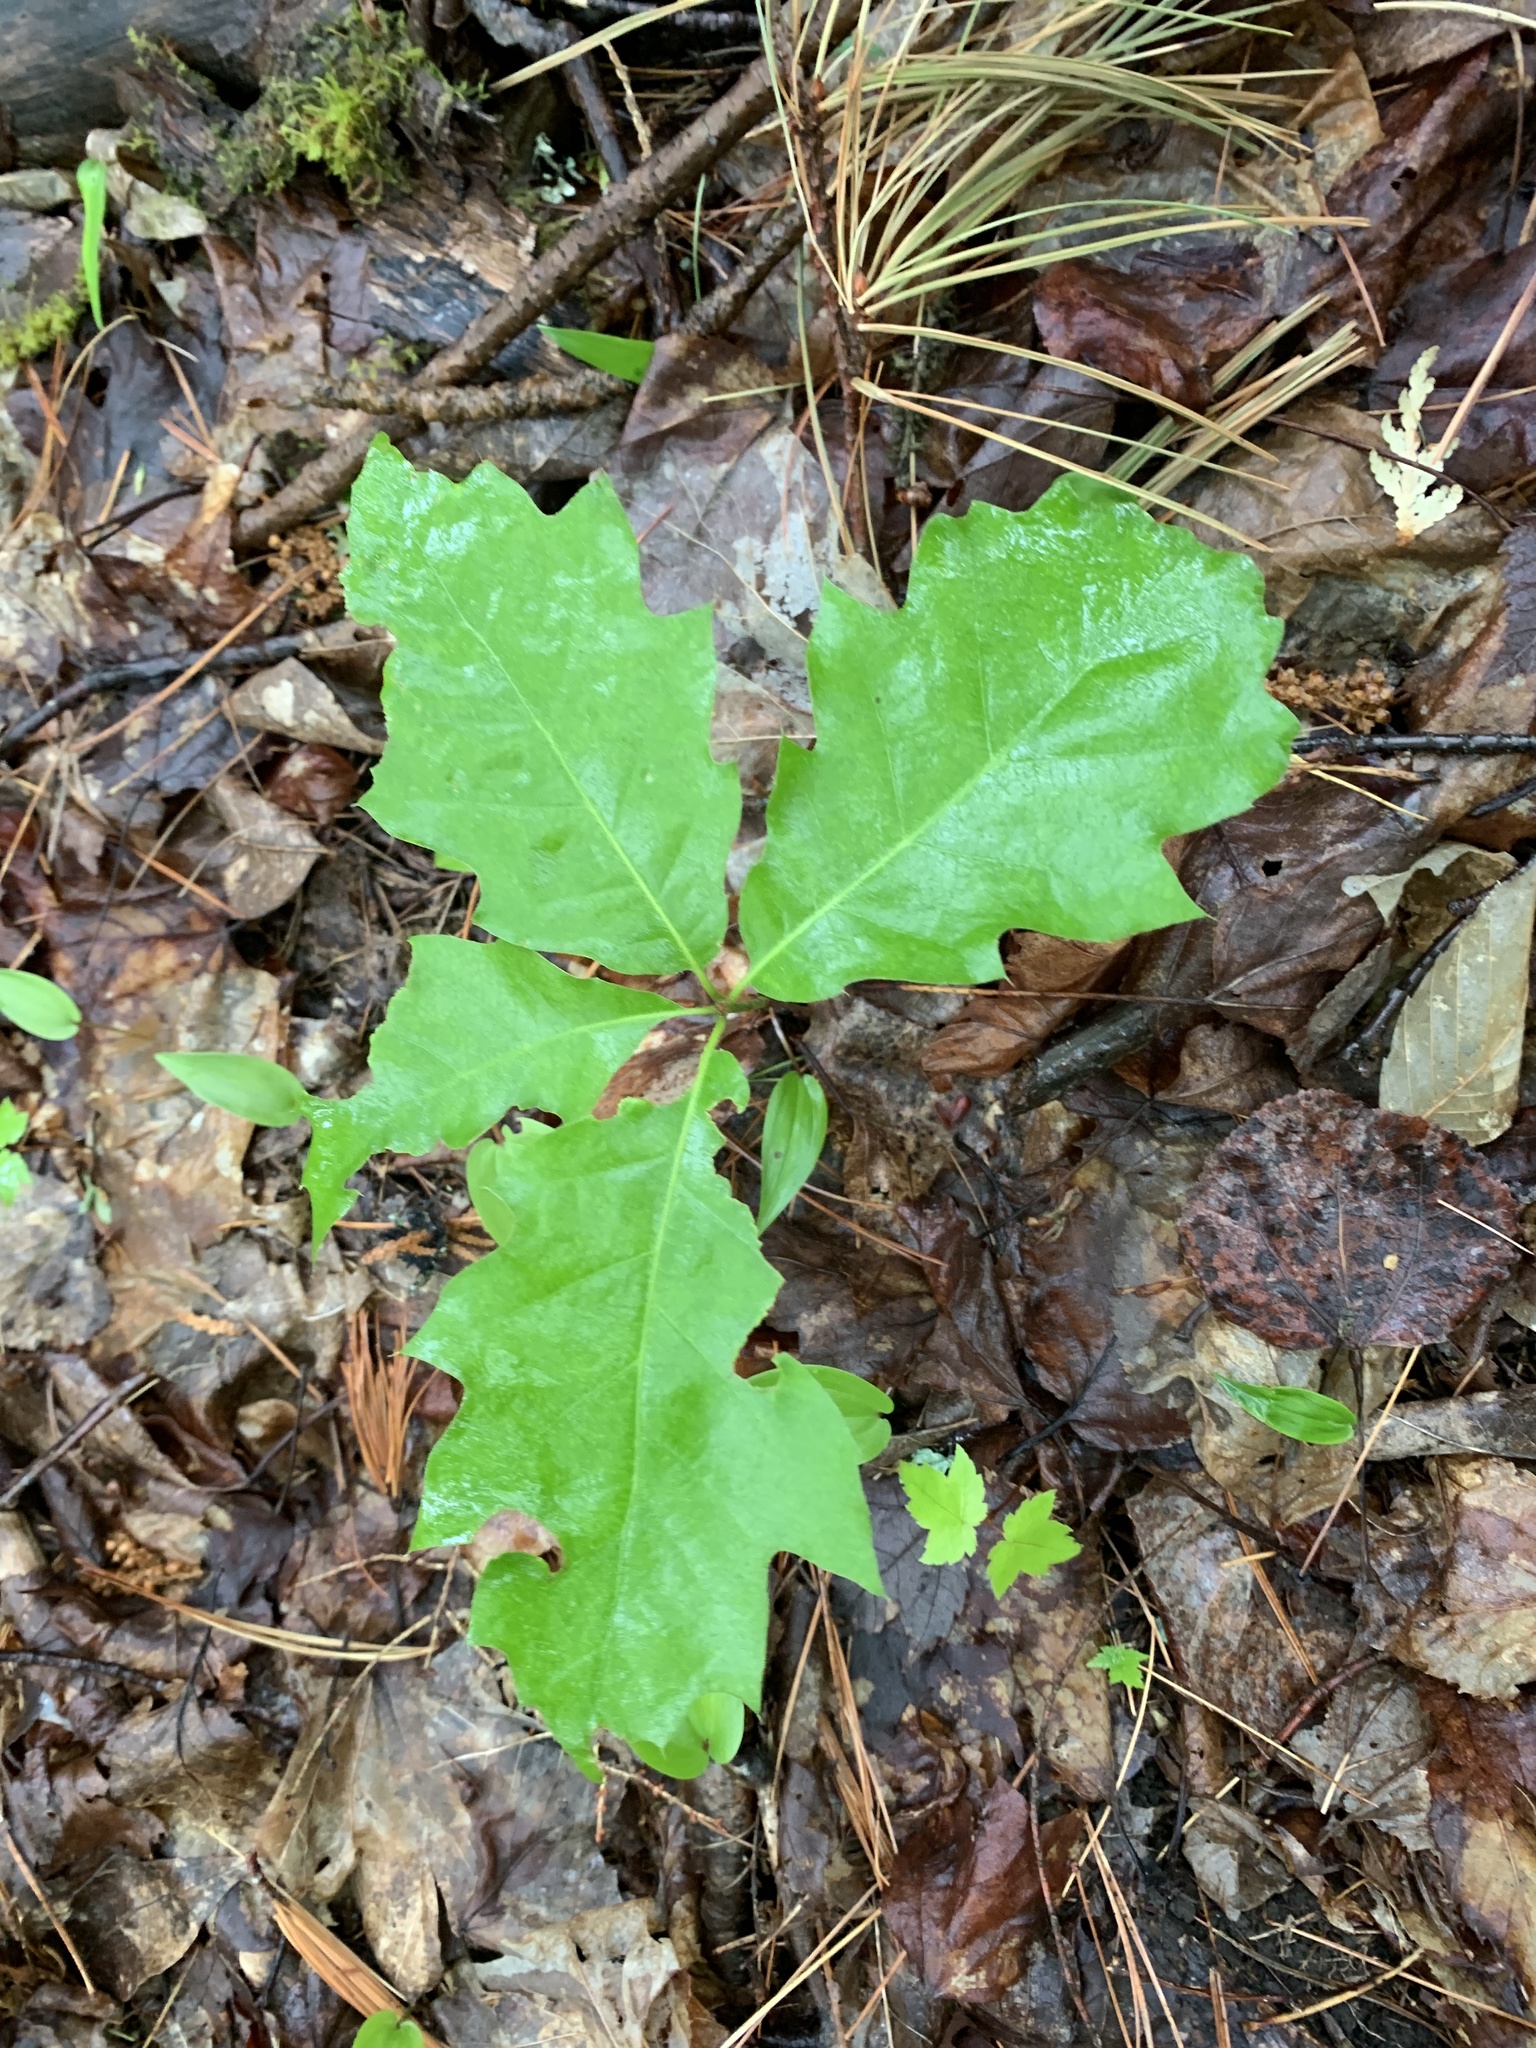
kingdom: Plantae
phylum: Tracheophyta
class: Magnoliopsida
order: Fagales
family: Fagaceae
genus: Quercus
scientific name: Quercus rubra
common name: Red oak
